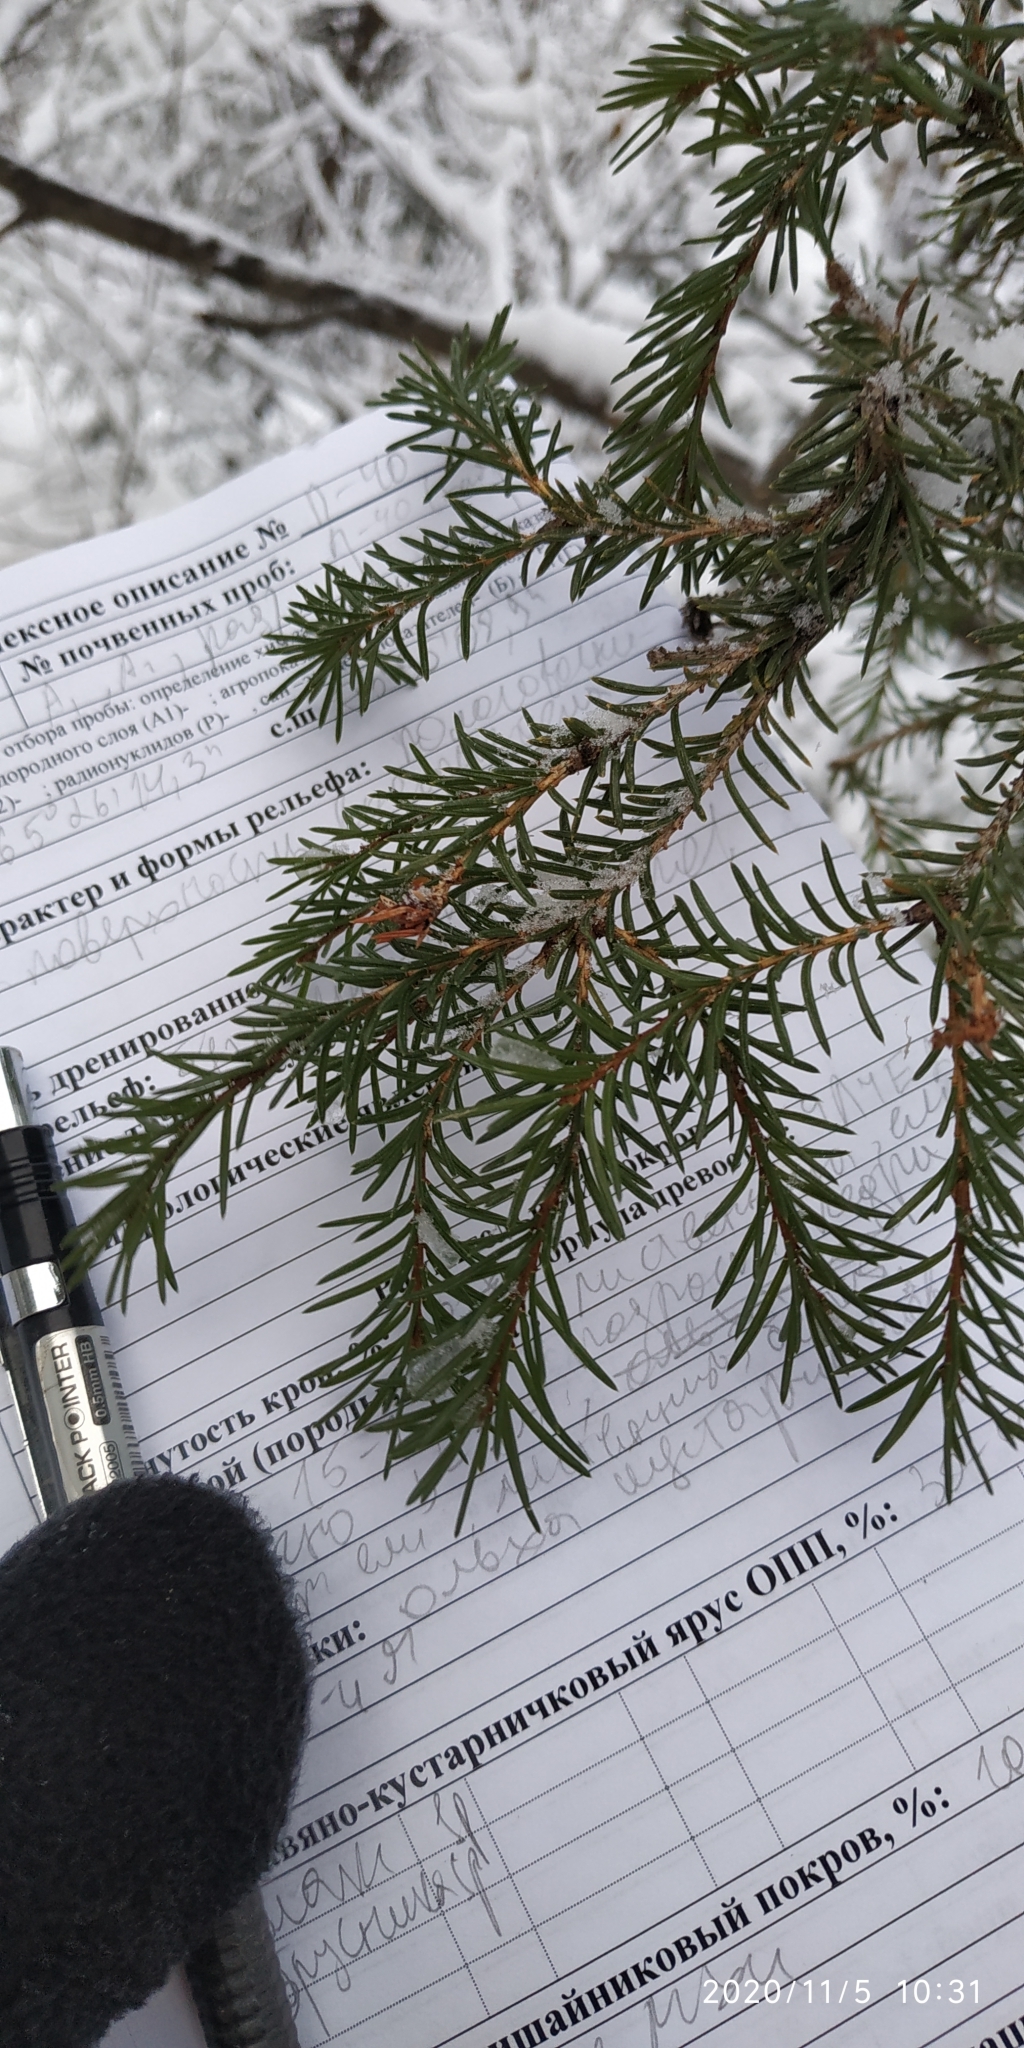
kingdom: Plantae
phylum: Tracheophyta
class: Pinopsida
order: Pinales
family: Pinaceae
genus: Picea
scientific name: Picea obovata
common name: Siberian spruce
